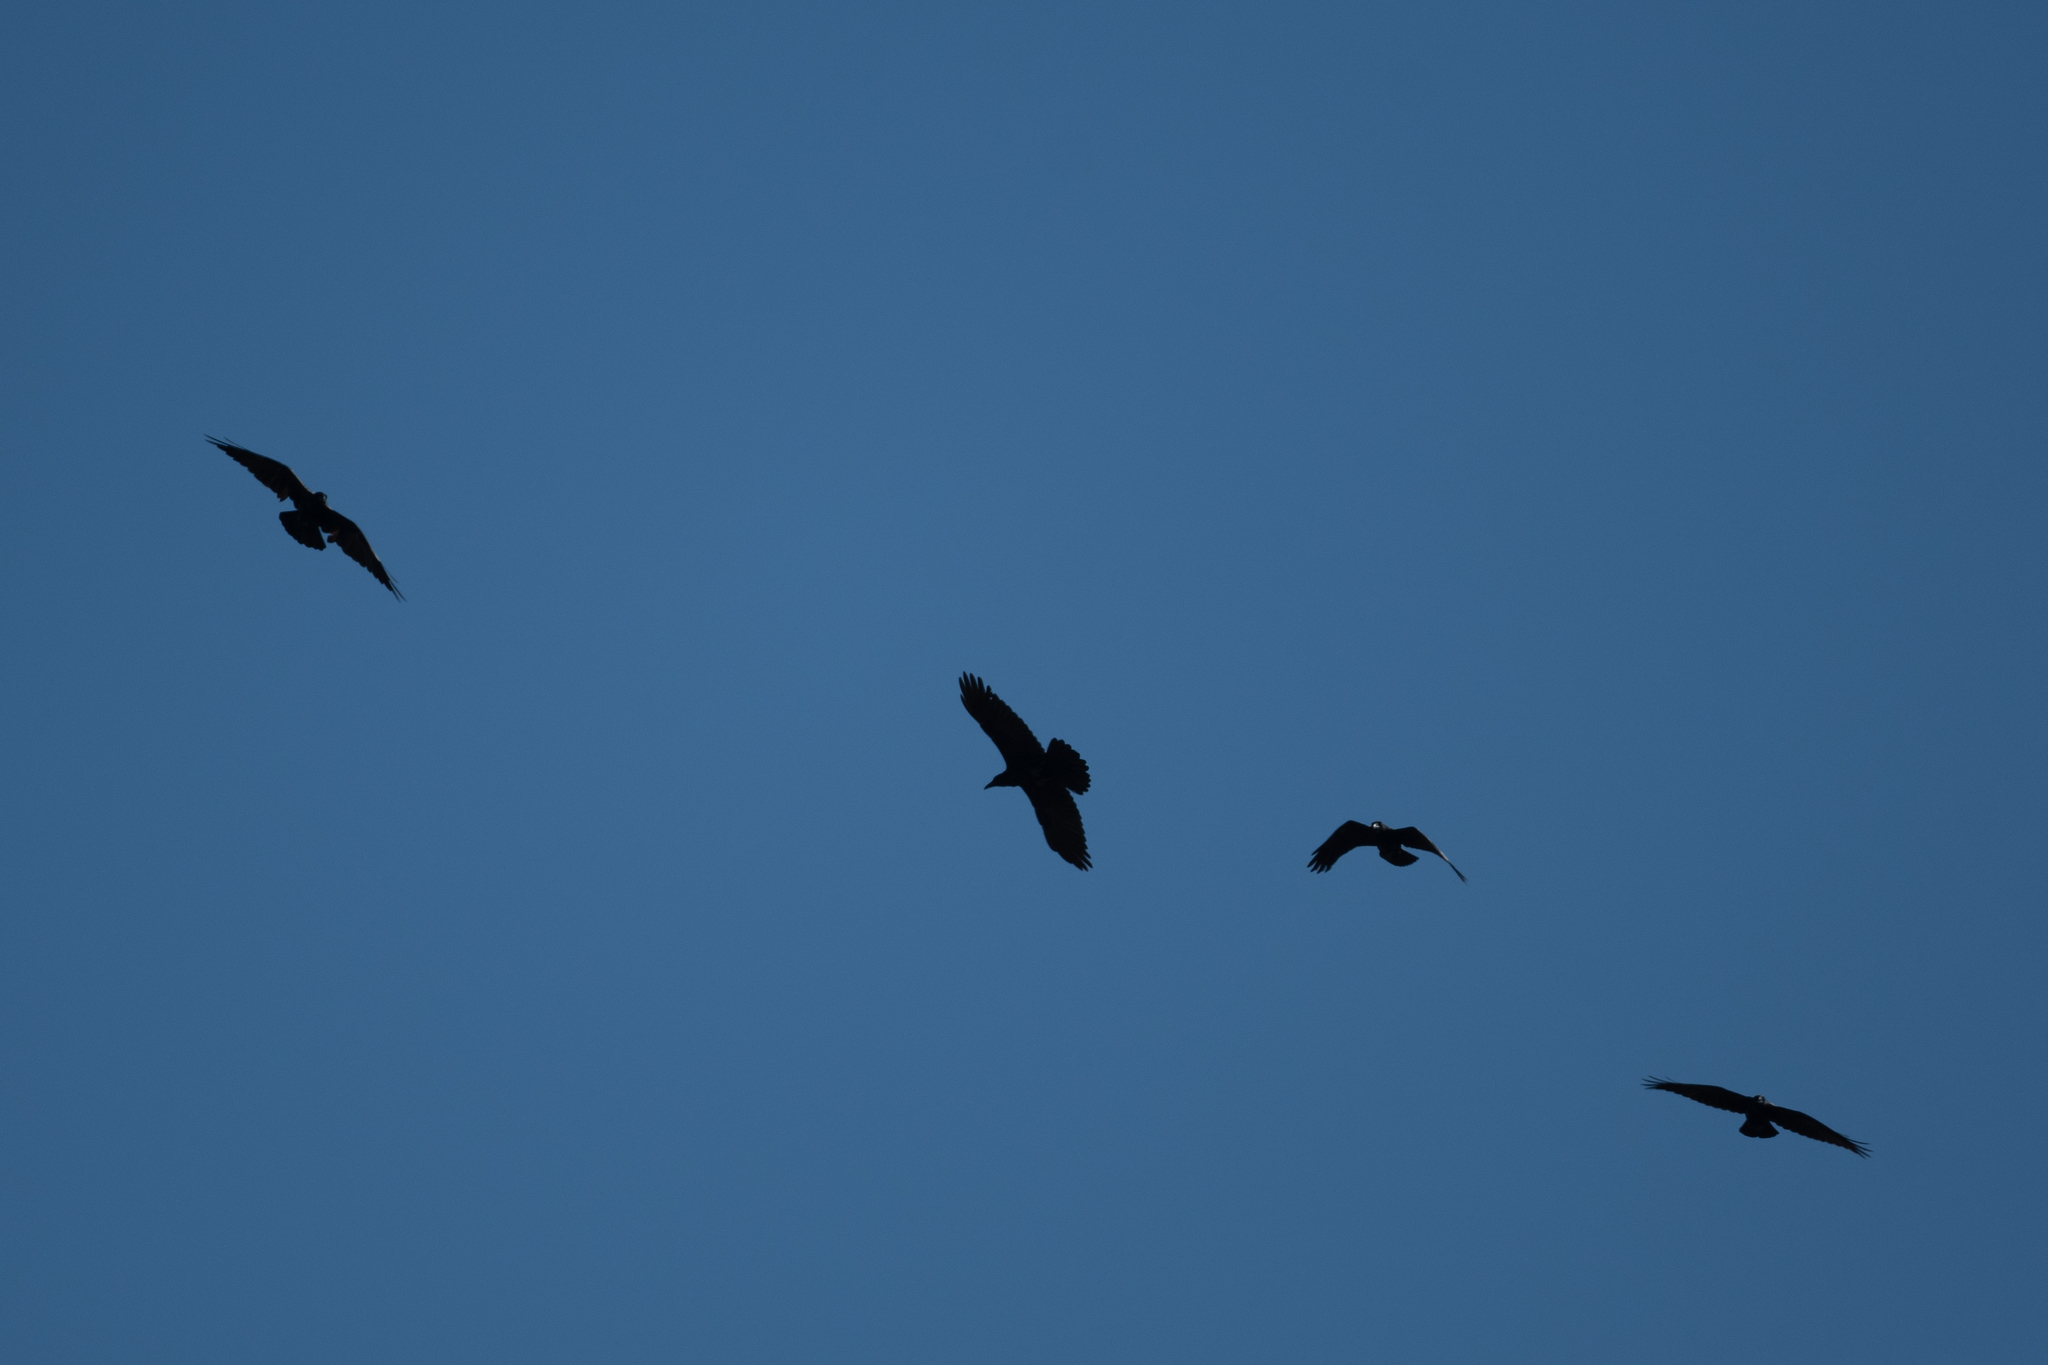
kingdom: Animalia
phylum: Chordata
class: Aves
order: Passeriformes
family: Corvidae
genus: Corvus
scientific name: Corvus corax
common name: Common raven
